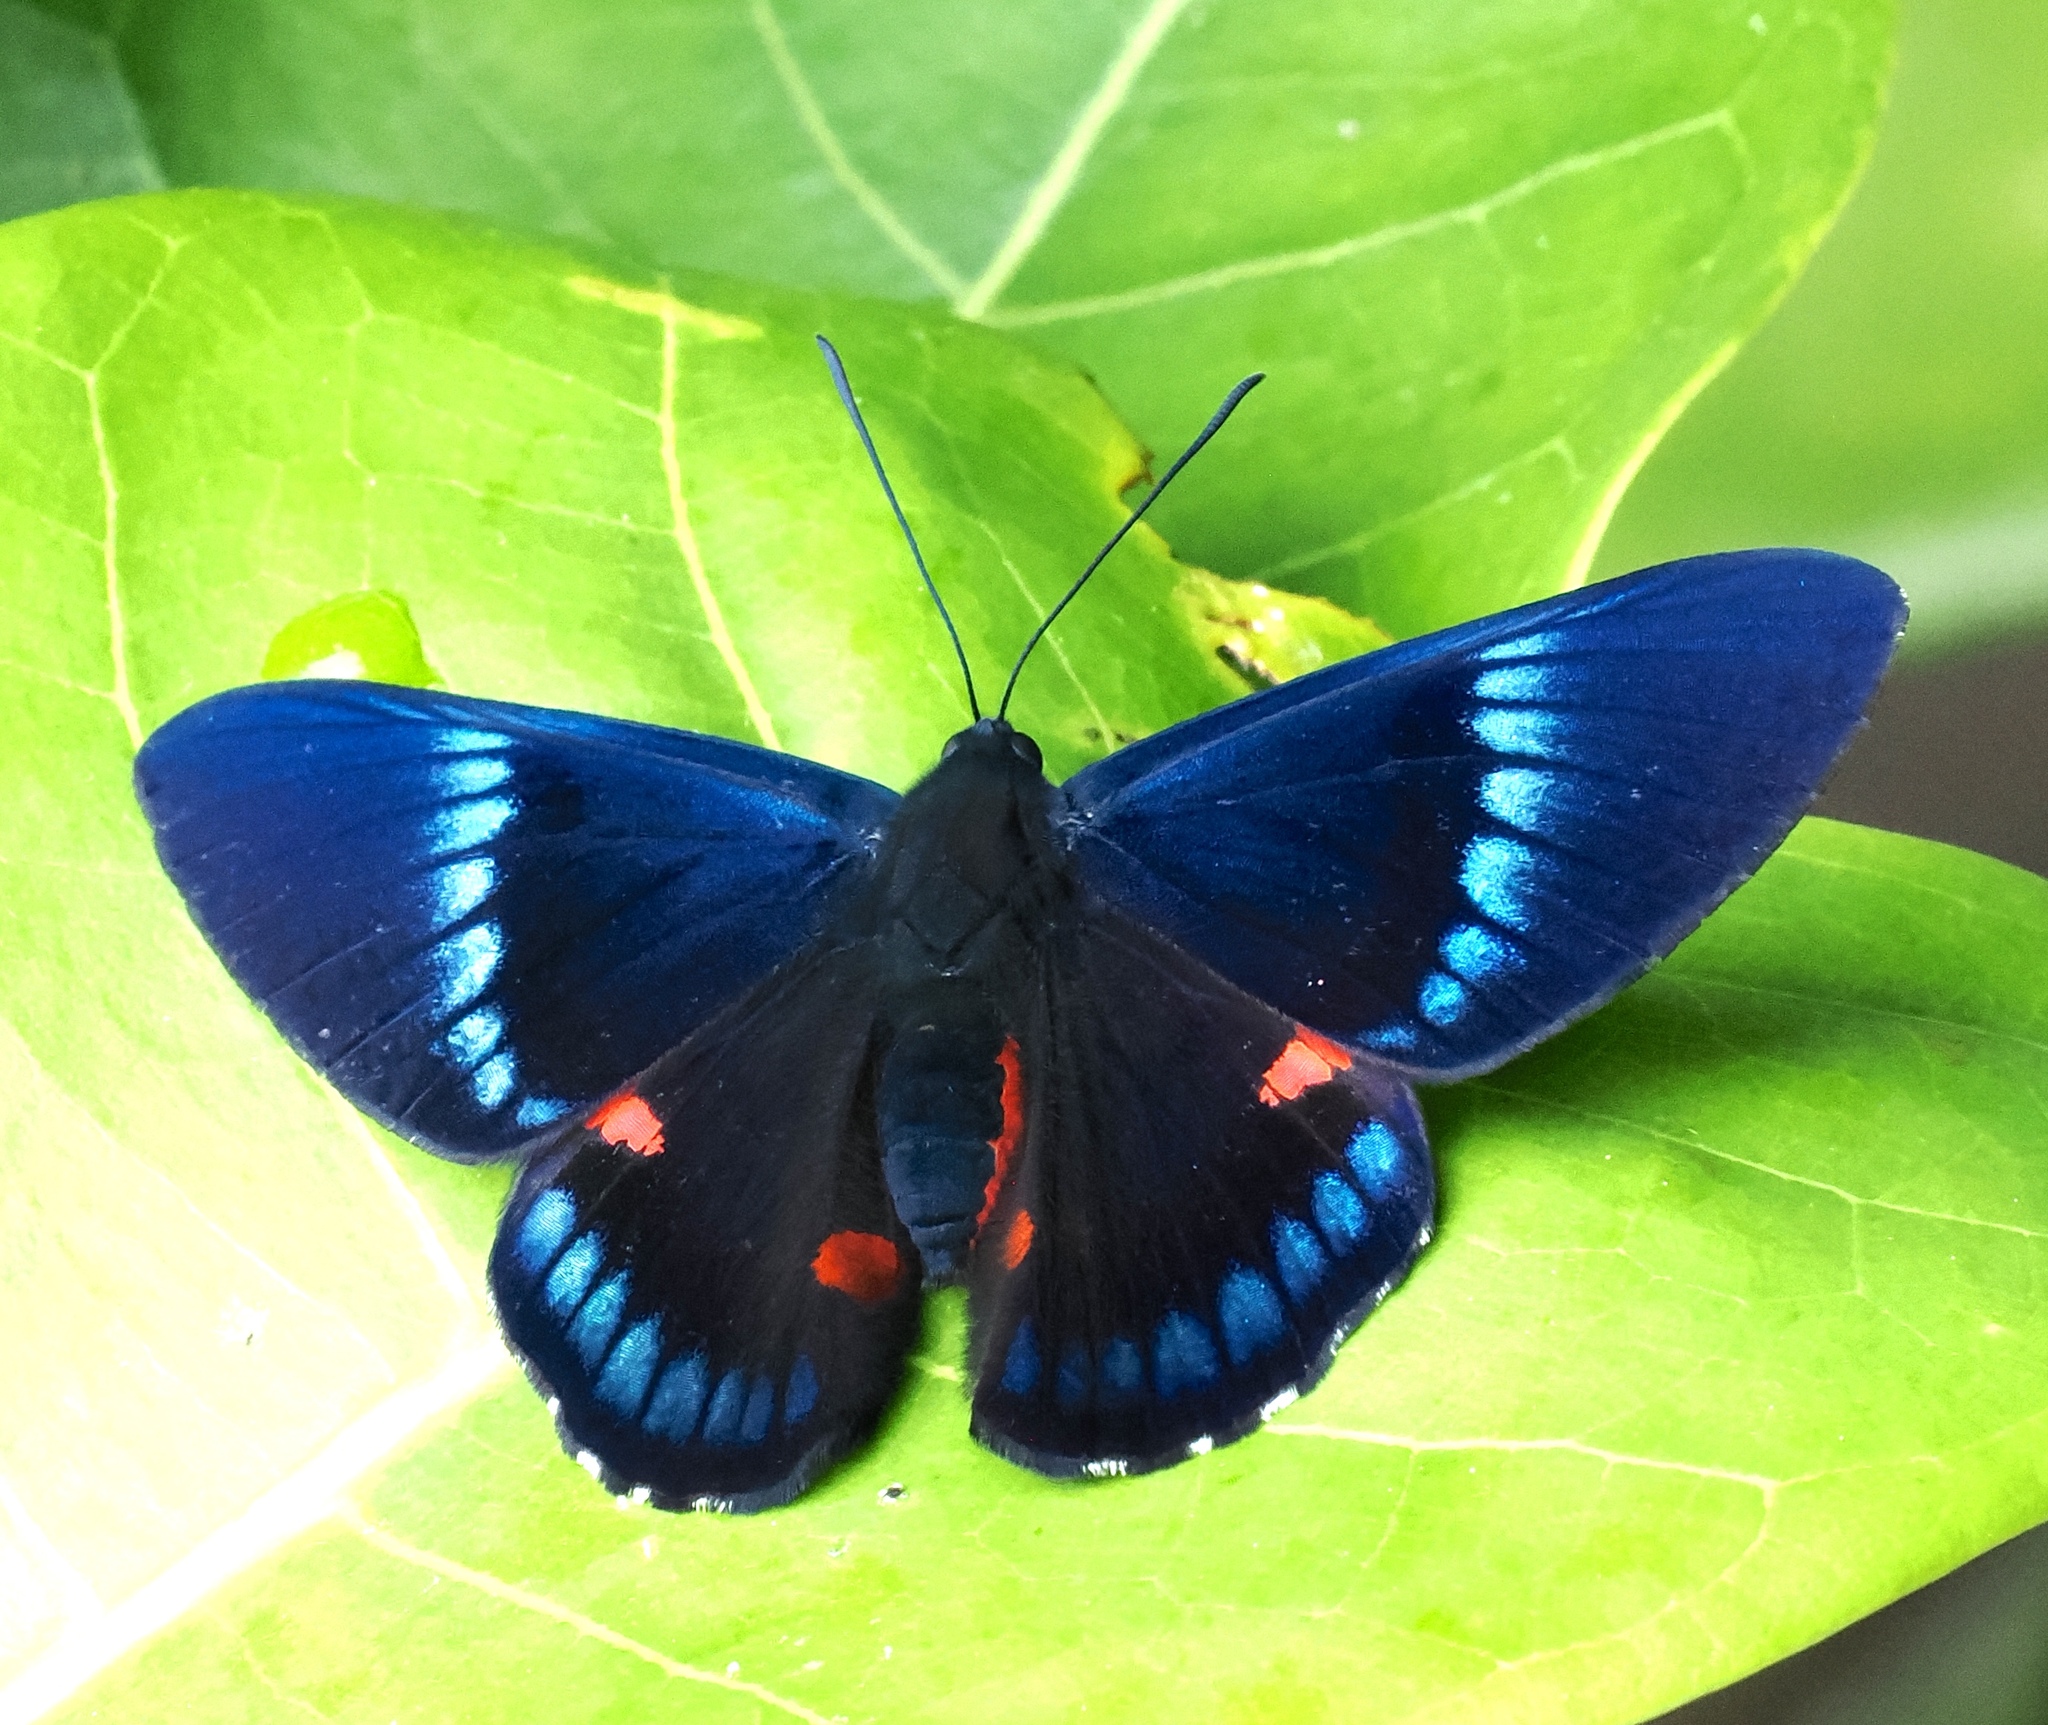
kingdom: Animalia
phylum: Arthropoda
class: Insecta
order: Lepidoptera
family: Lycaenidae
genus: Necyria
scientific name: Necyria bellona
